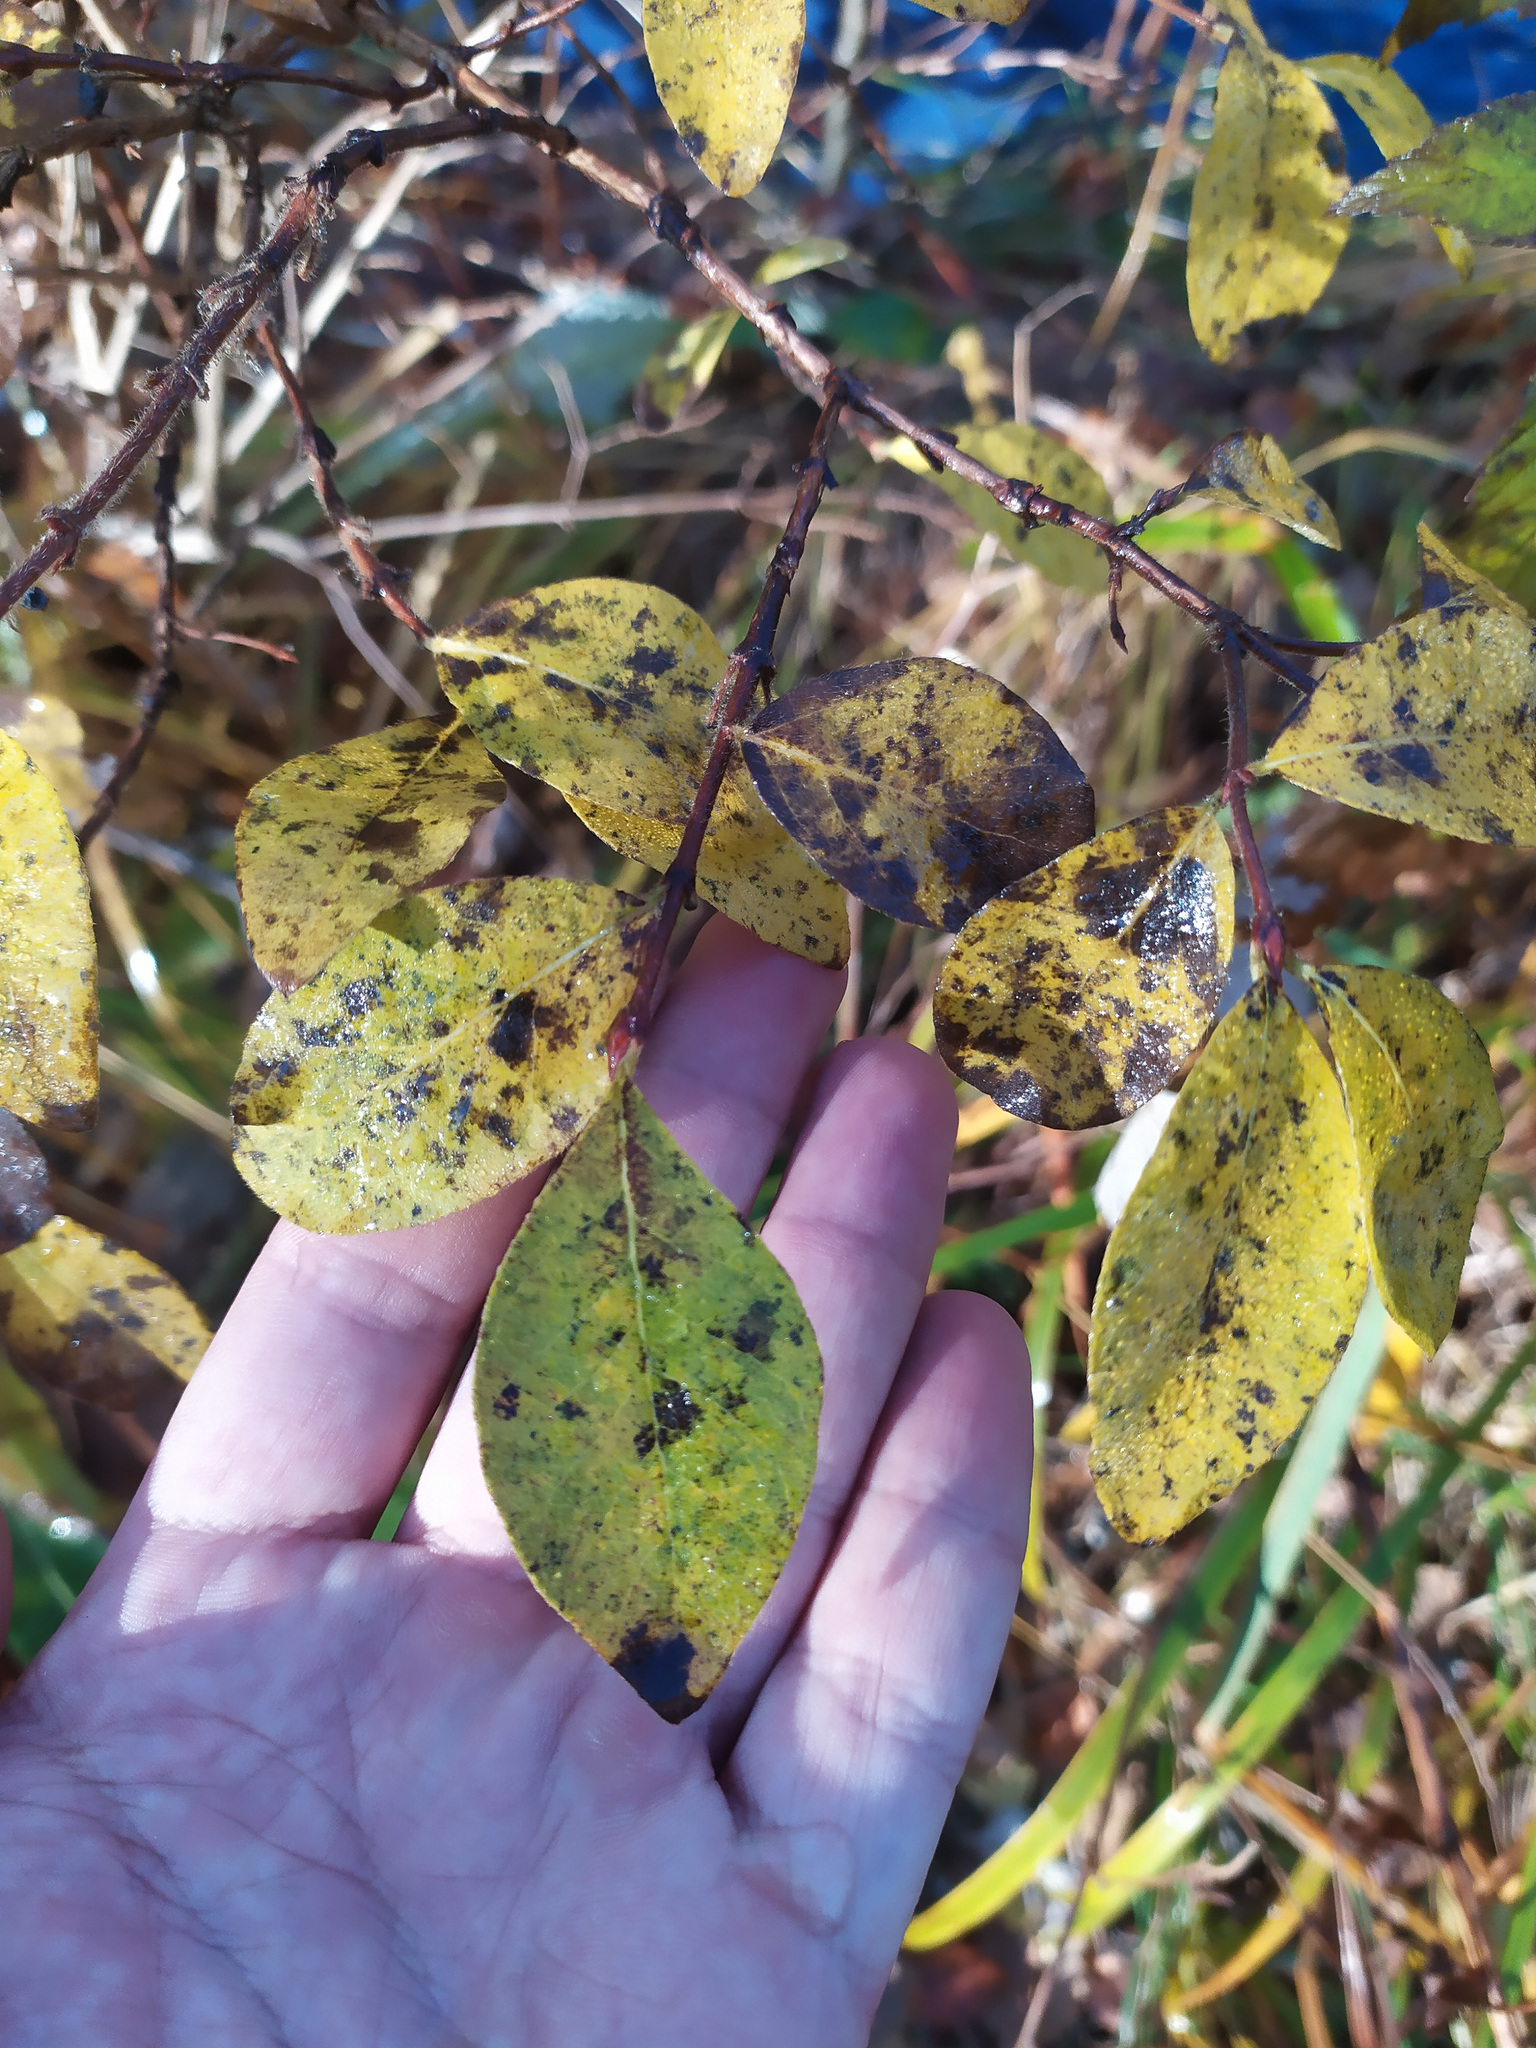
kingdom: Plantae
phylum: Tracheophyta
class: Magnoliopsida
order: Dipsacales
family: Caprifoliaceae
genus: Lonicera
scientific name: Lonicera caerulea
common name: Blue honeysuckle
